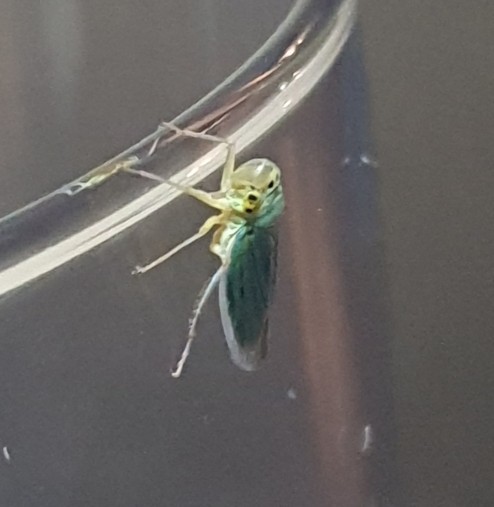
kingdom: Animalia
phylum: Arthropoda
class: Insecta
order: Hemiptera
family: Cicadellidae
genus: Cicadella
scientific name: Cicadella viridis
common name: Leafhopper
